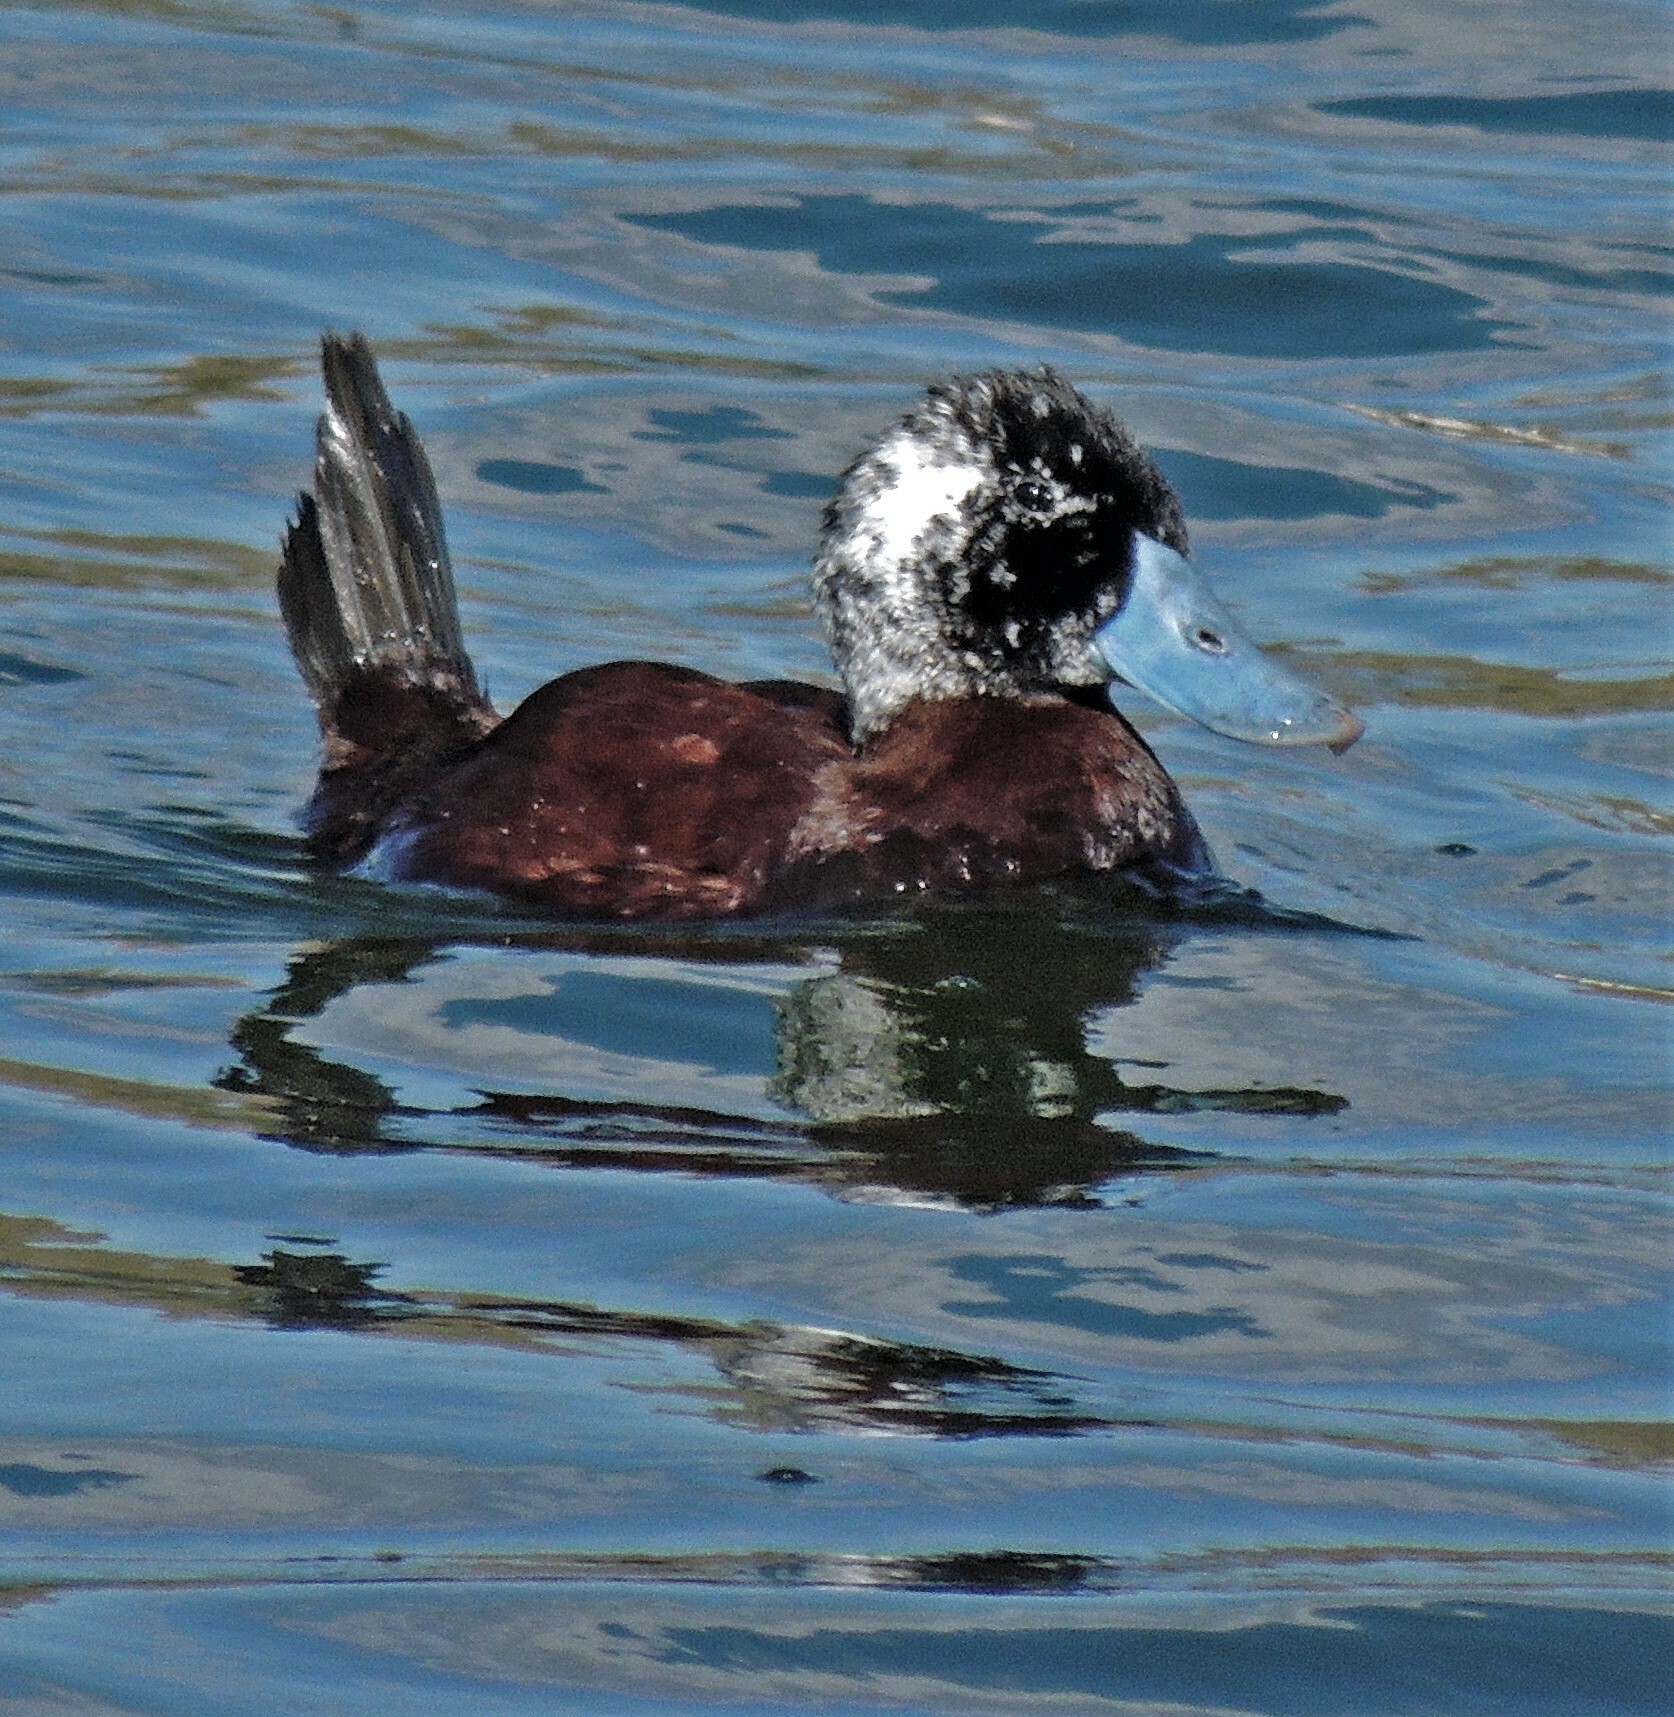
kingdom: Animalia
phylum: Chordata
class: Aves
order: Anseriformes
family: Anatidae
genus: Oxyura
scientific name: Oxyura ferruginea
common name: Andean duck
